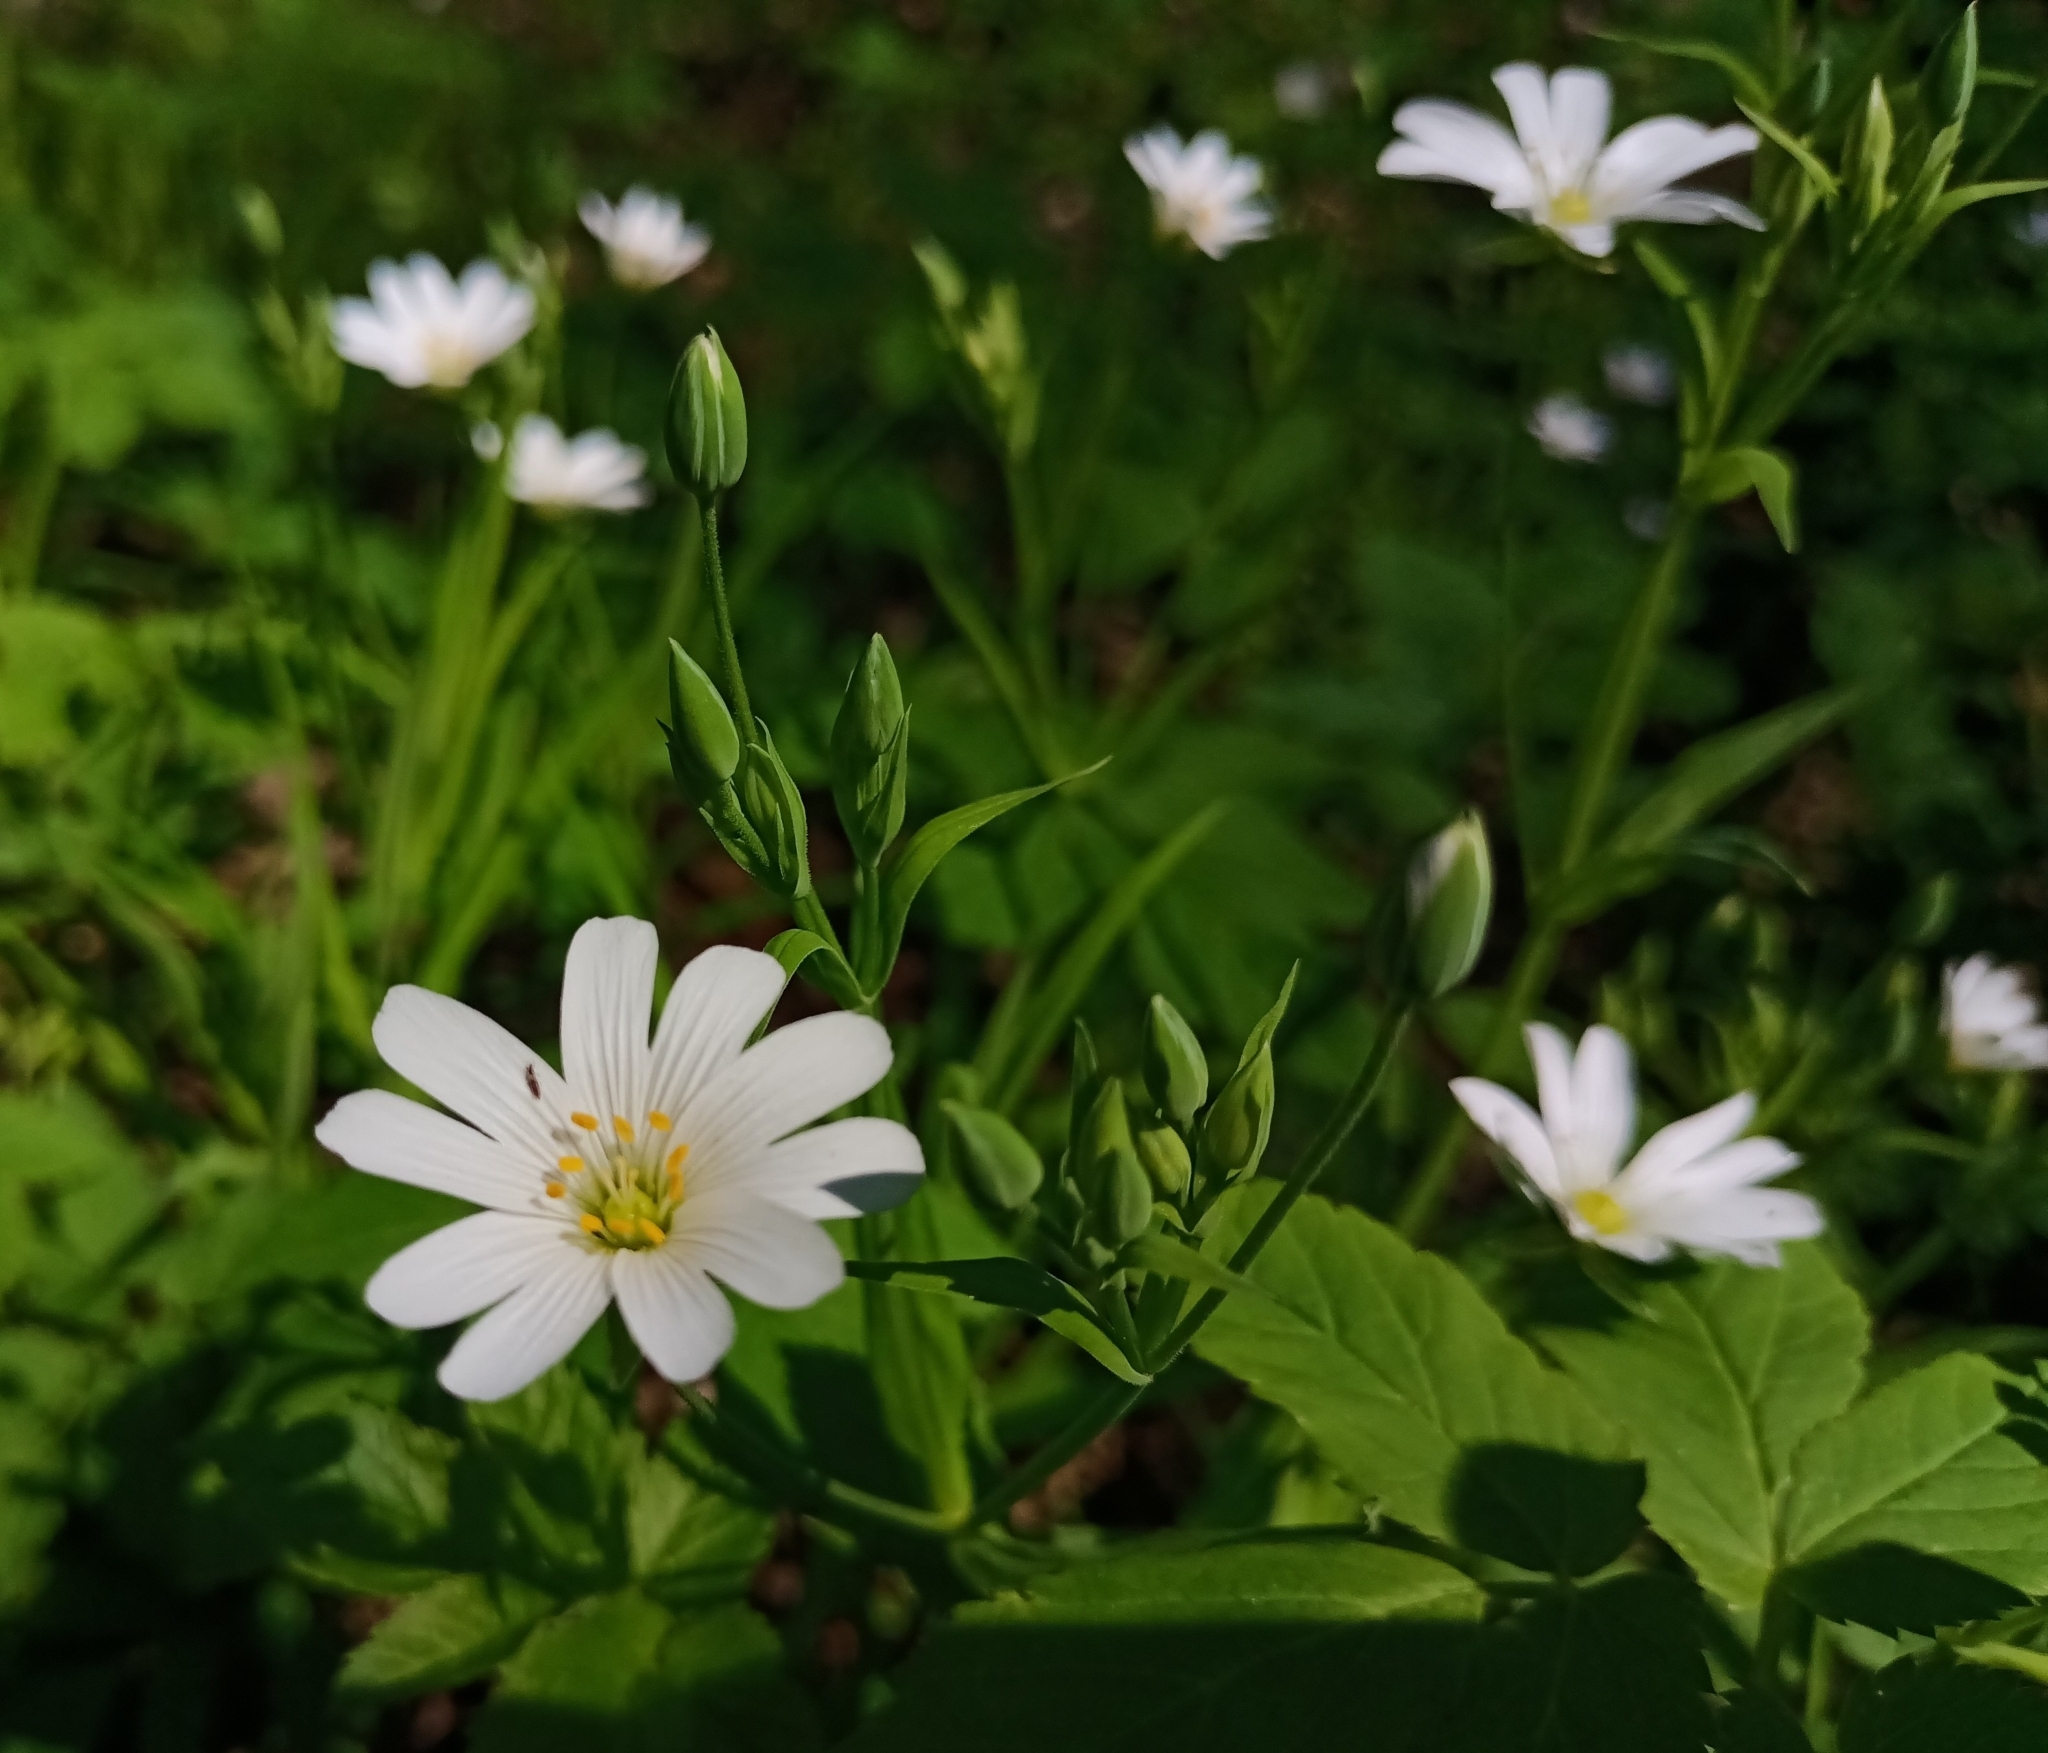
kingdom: Plantae
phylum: Tracheophyta
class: Magnoliopsida
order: Caryophyllales
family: Caryophyllaceae
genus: Rabelera
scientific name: Rabelera holostea
